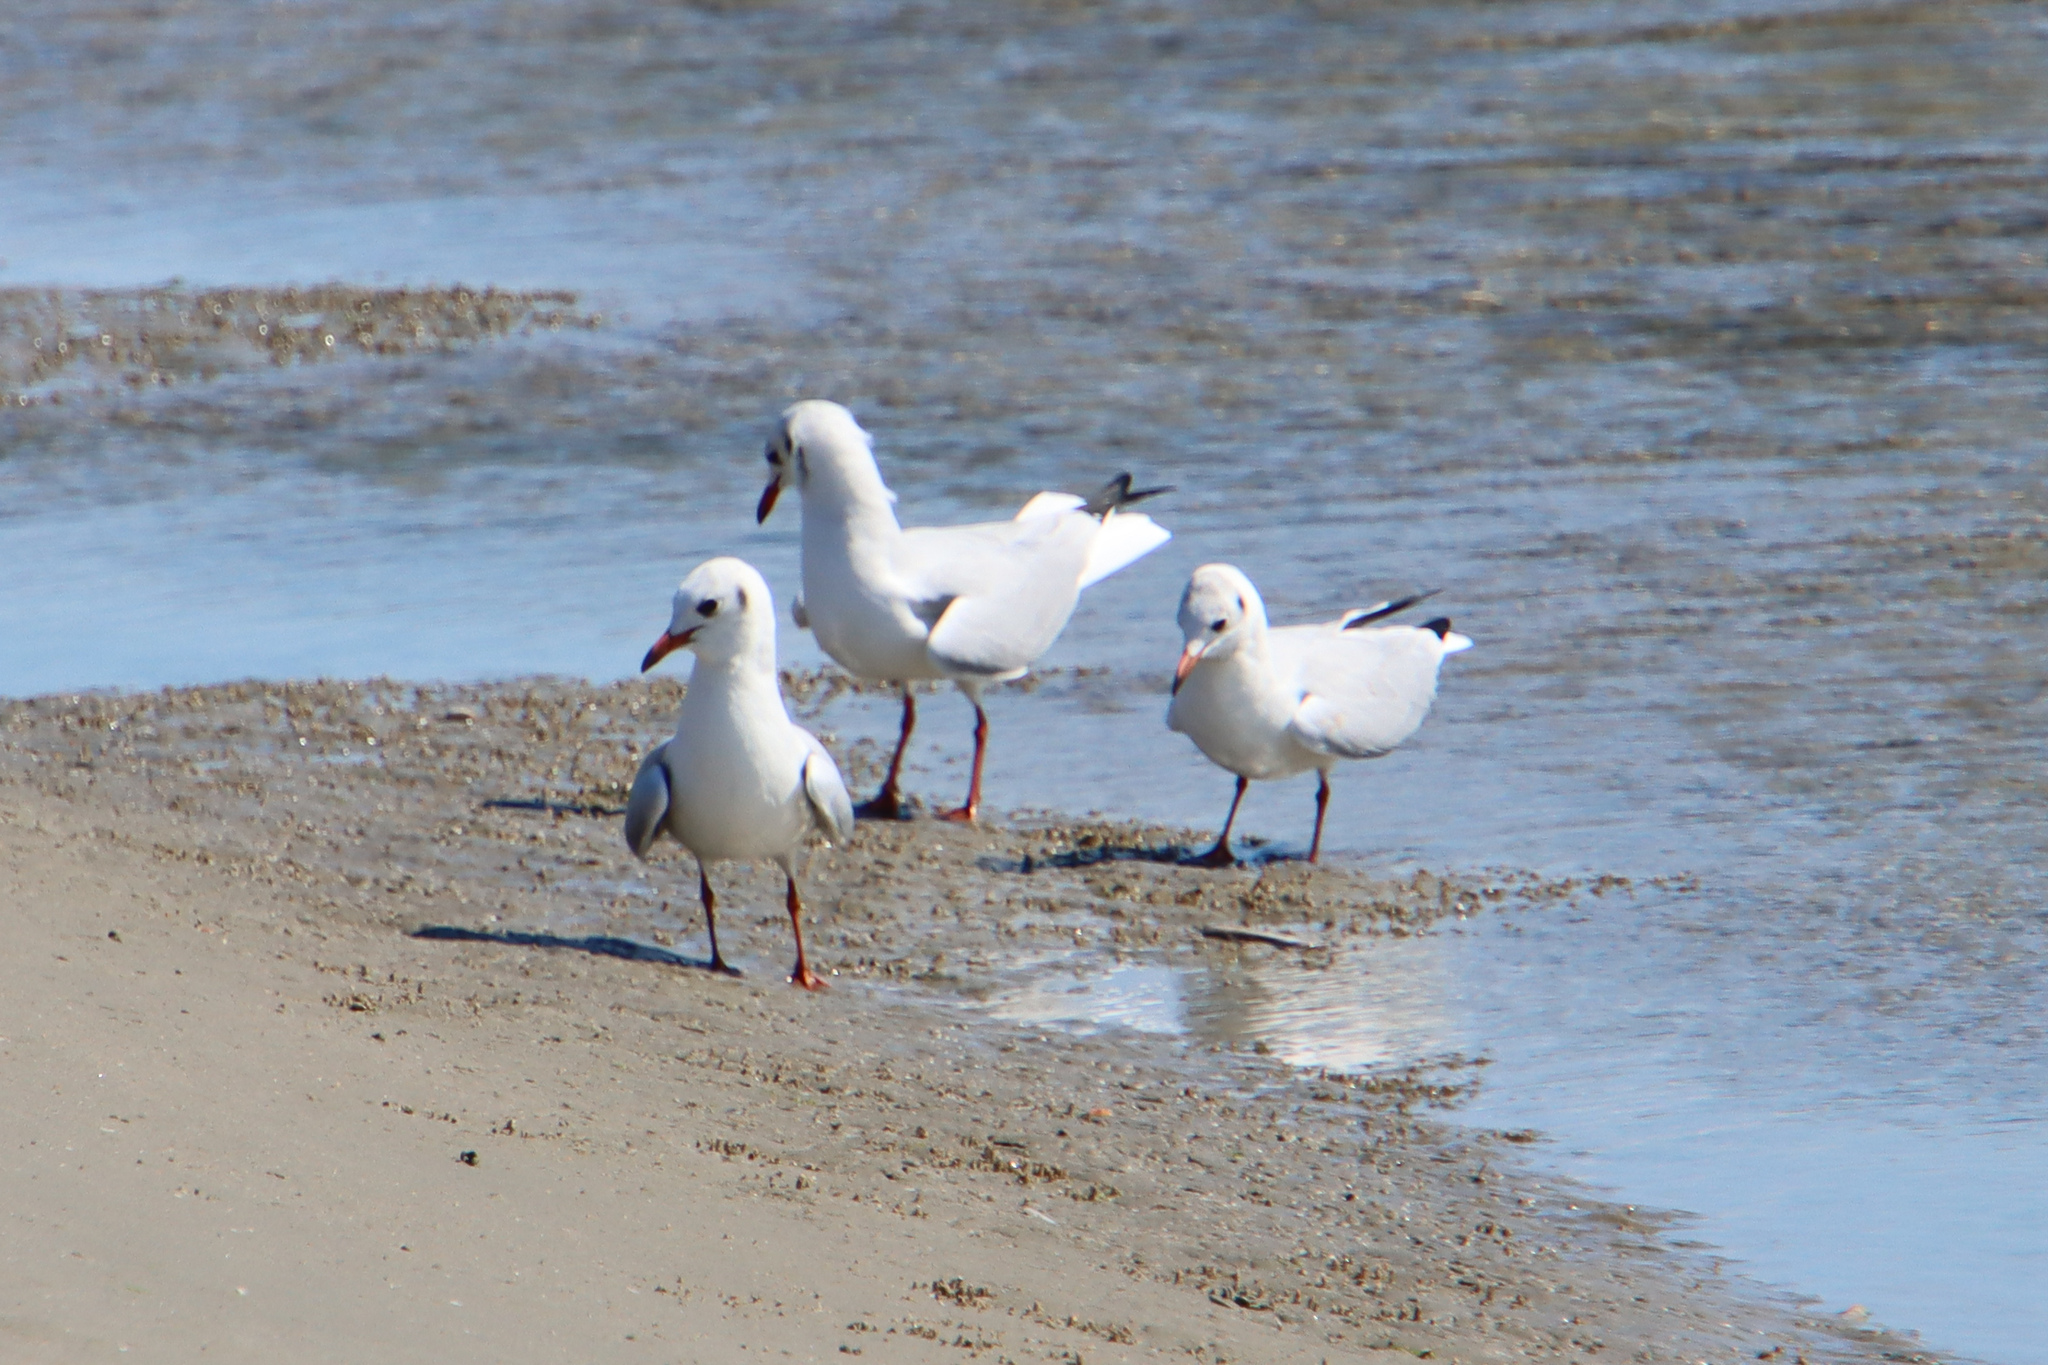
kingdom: Animalia
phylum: Chordata
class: Aves
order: Charadriiformes
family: Laridae
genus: Chroicocephalus
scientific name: Chroicocephalus ridibundus
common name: Black-headed gull
